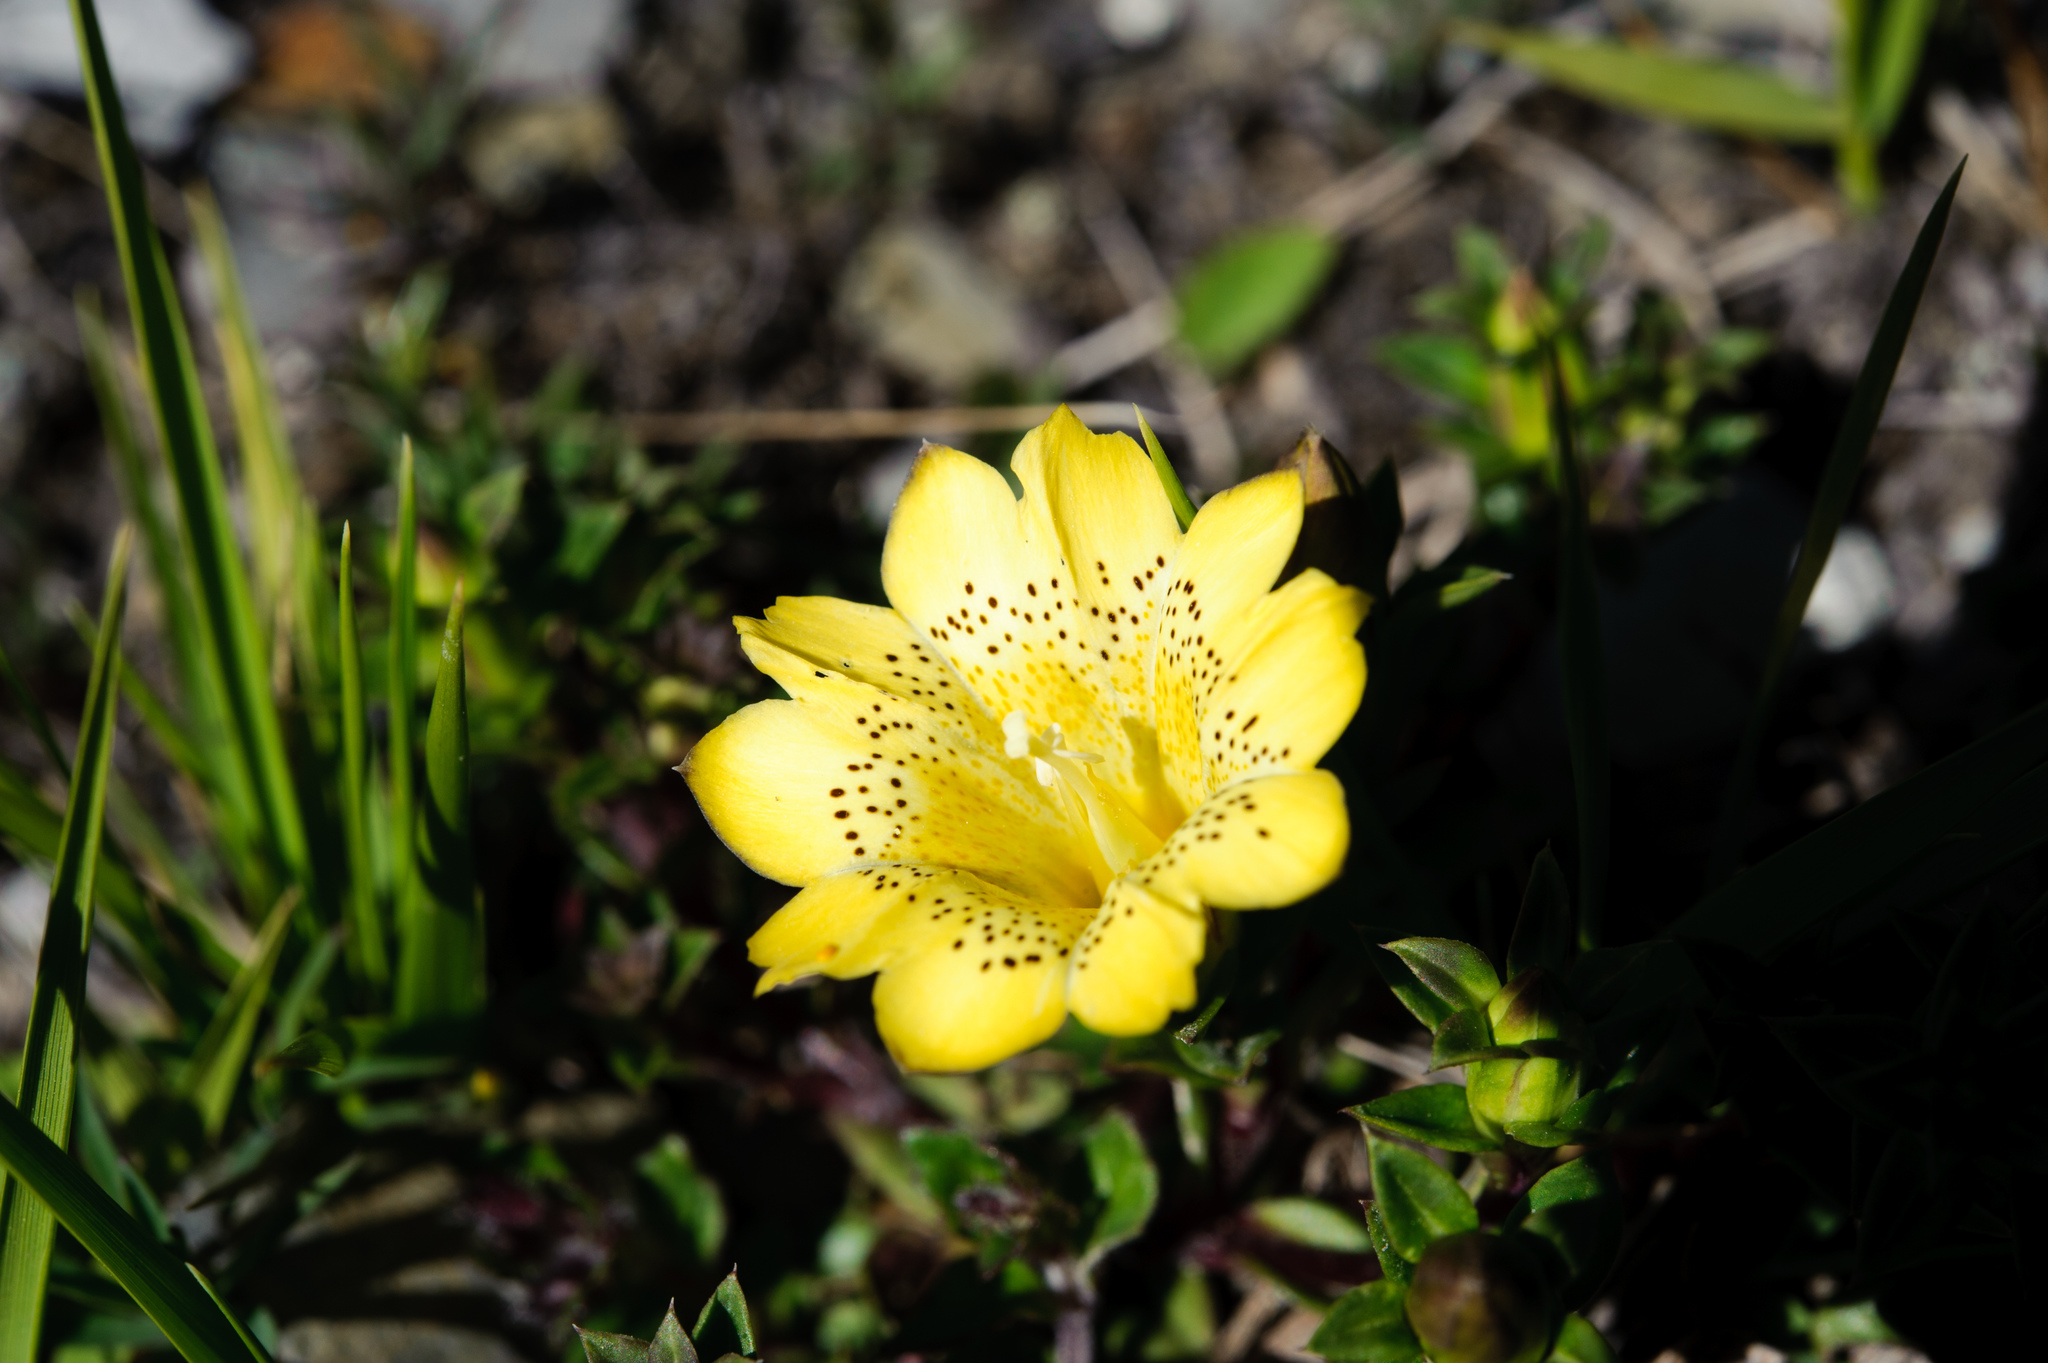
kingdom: Plantae
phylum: Tracheophyta
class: Magnoliopsida
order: Gentianales
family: Gentianaceae
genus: Gentiana
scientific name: Gentiana scabrida
